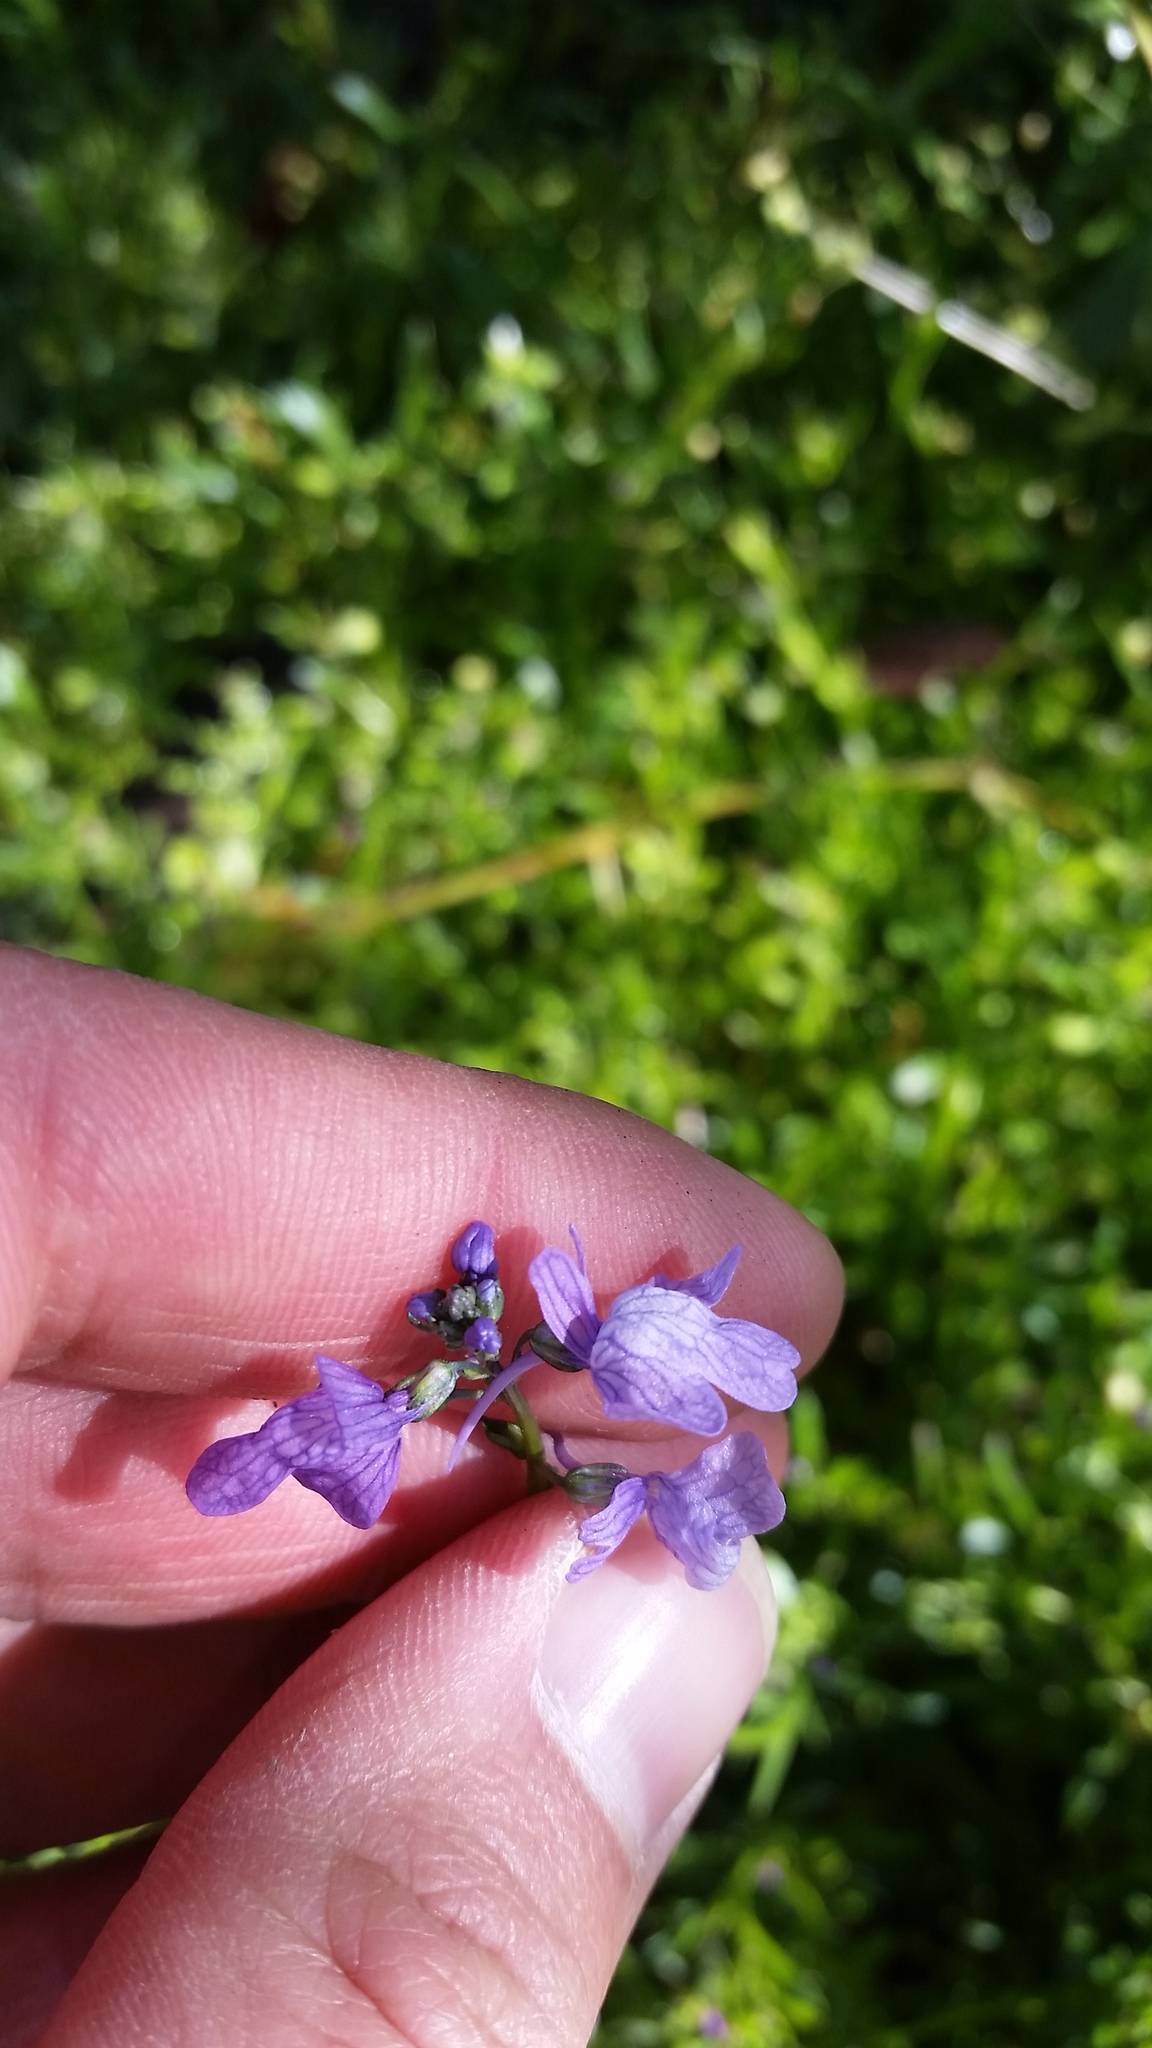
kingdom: Plantae
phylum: Tracheophyta
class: Magnoliopsida
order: Lamiales
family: Plantaginaceae
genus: Nuttallanthus
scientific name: Nuttallanthus texanus
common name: Texas toadflax
